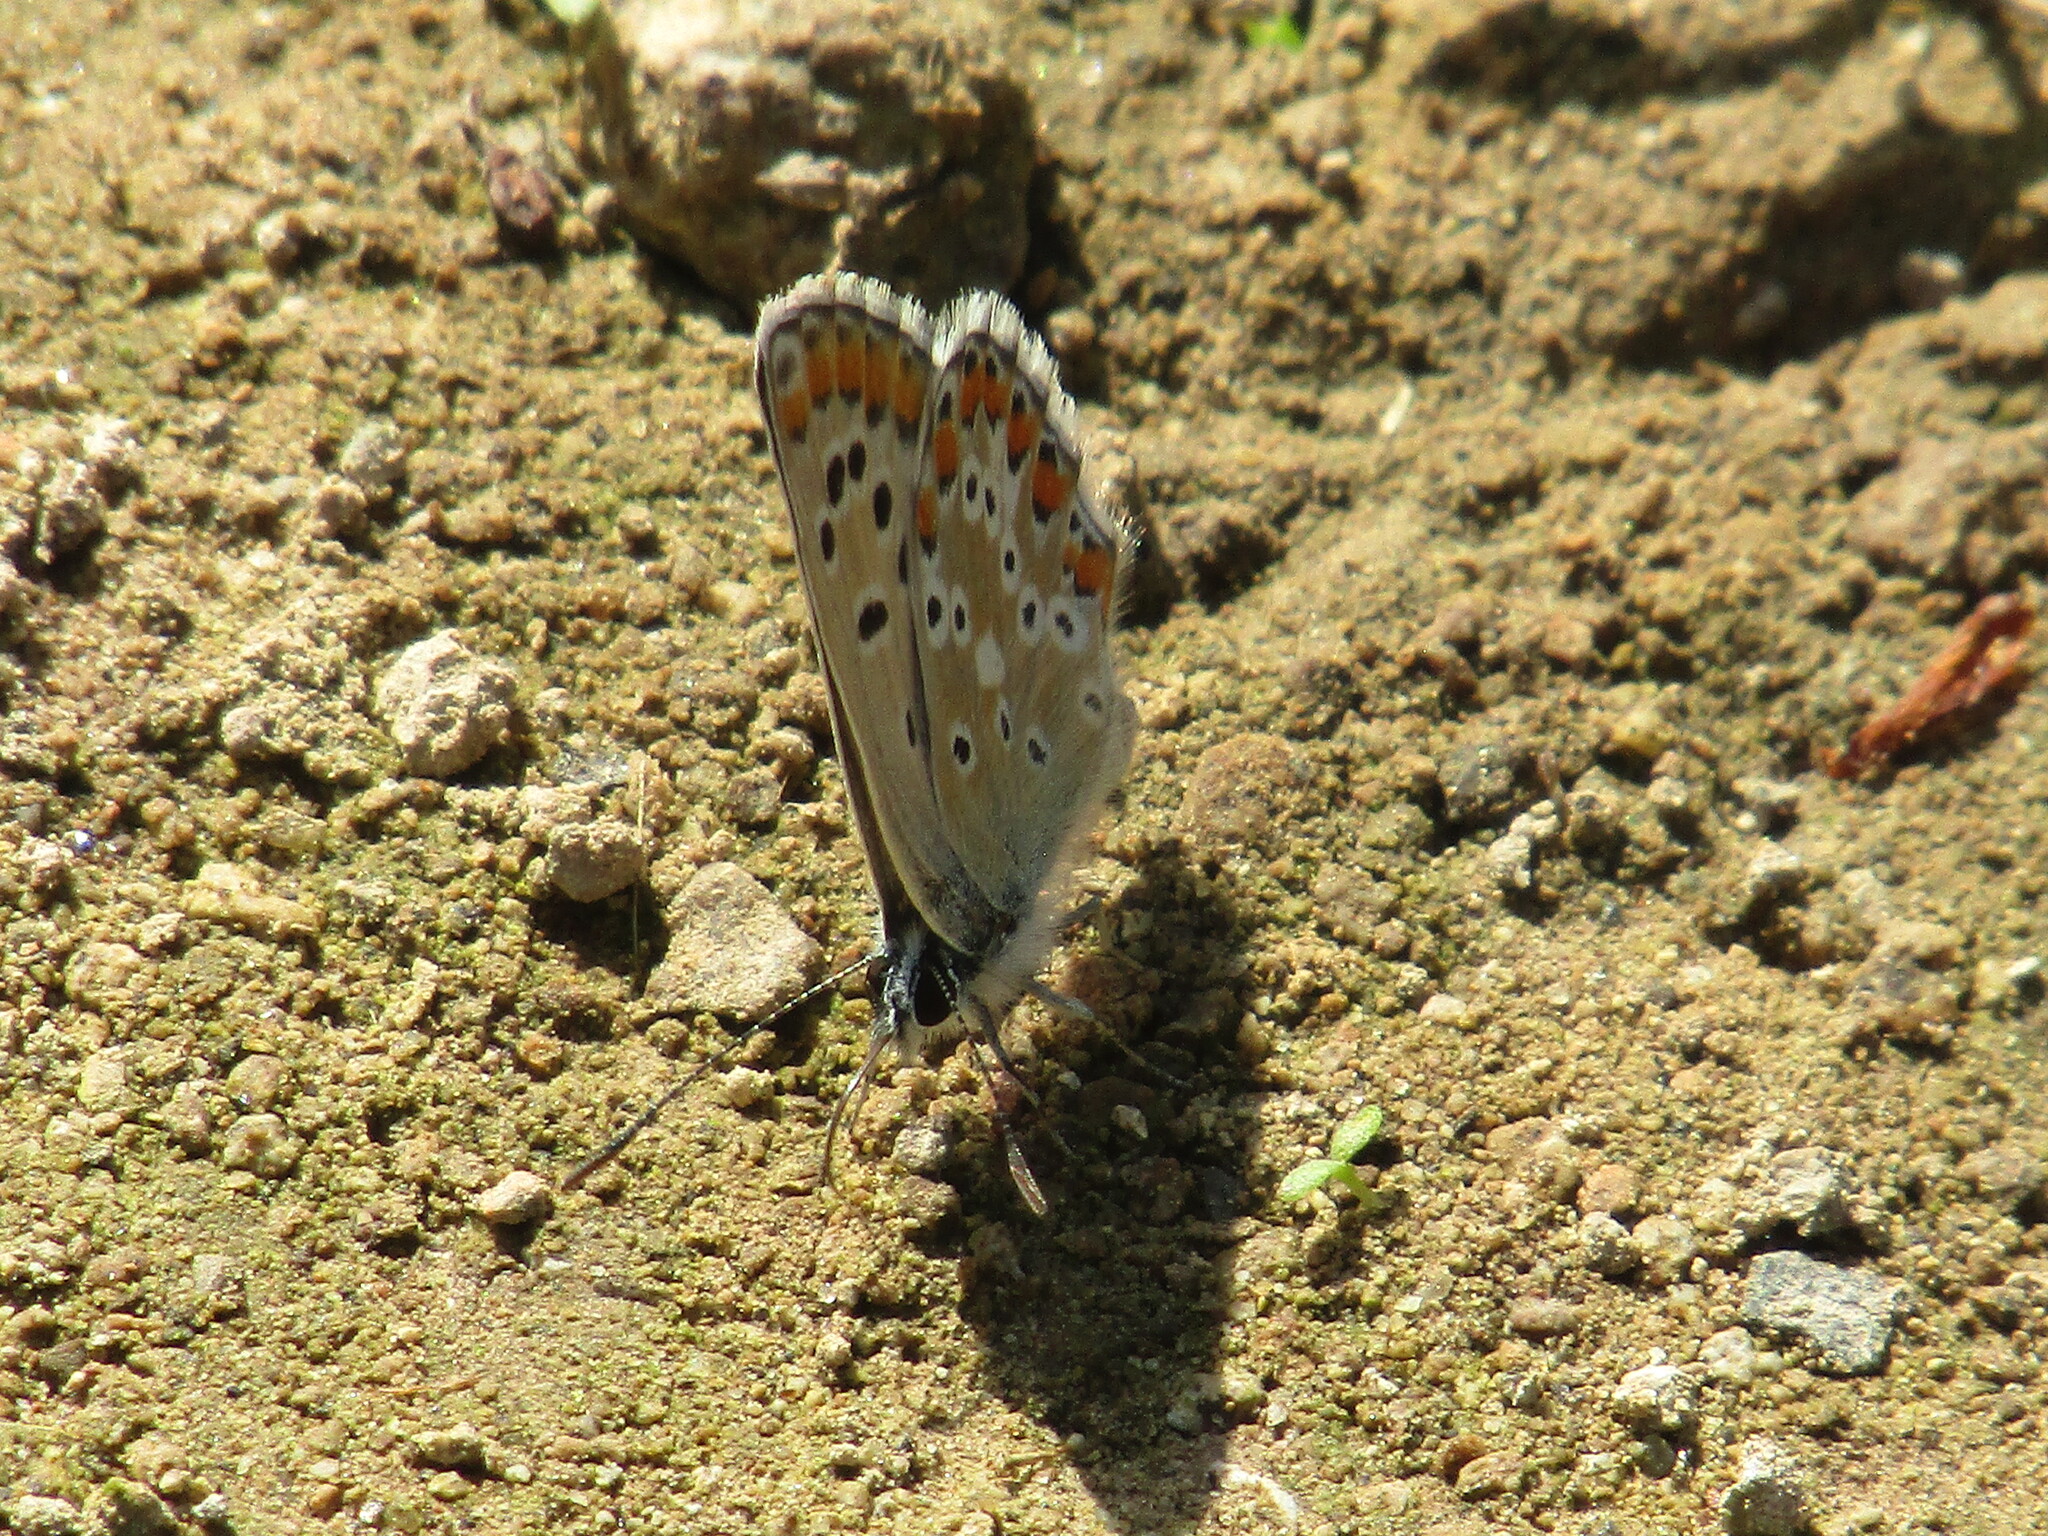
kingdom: Animalia
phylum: Arthropoda
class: Insecta
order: Lepidoptera
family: Lycaenidae
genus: Aricia
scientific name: Aricia
